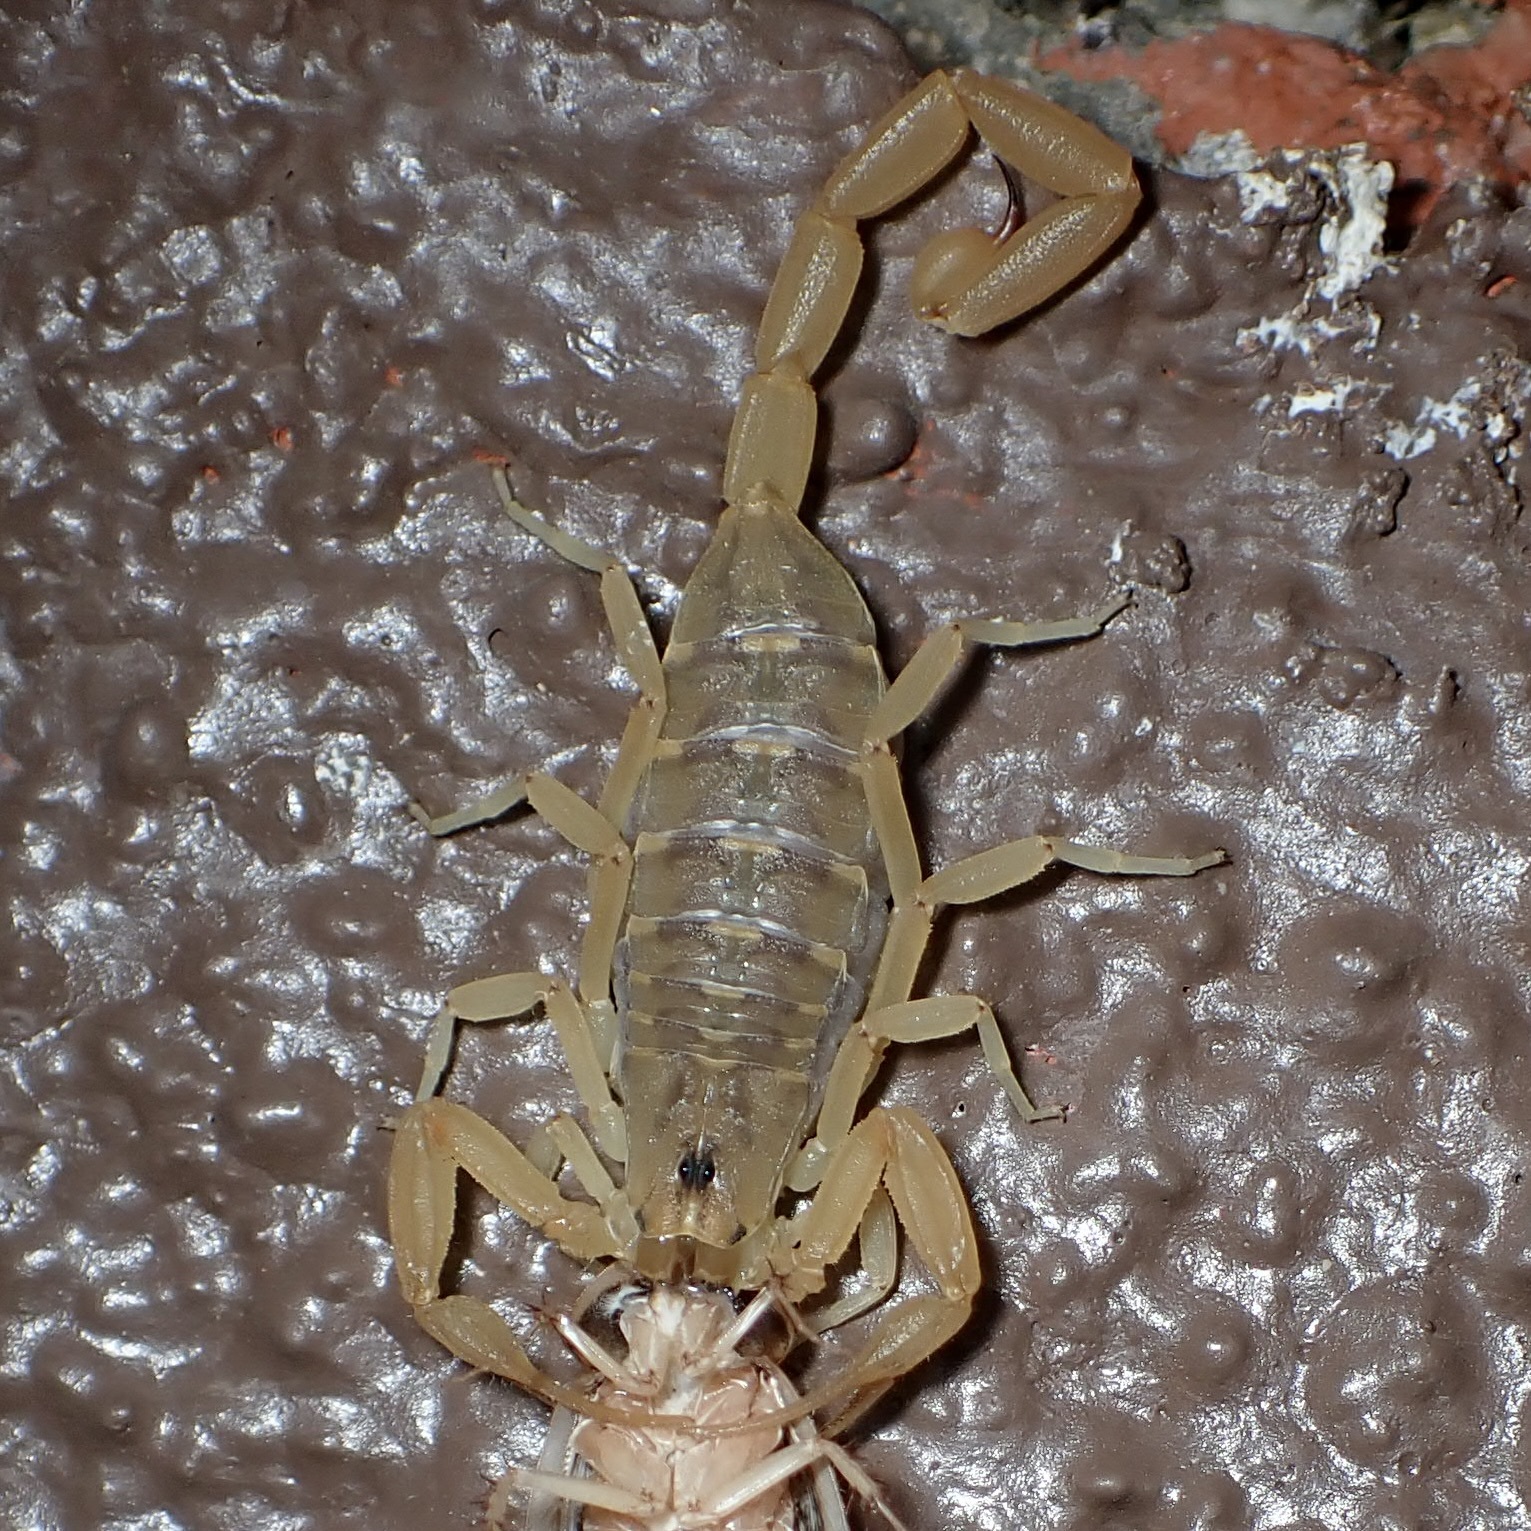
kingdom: Animalia
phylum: Arthropoda
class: Arachnida
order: Scorpiones
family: Buthidae
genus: Centruroides
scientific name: Centruroides sculpturatus
